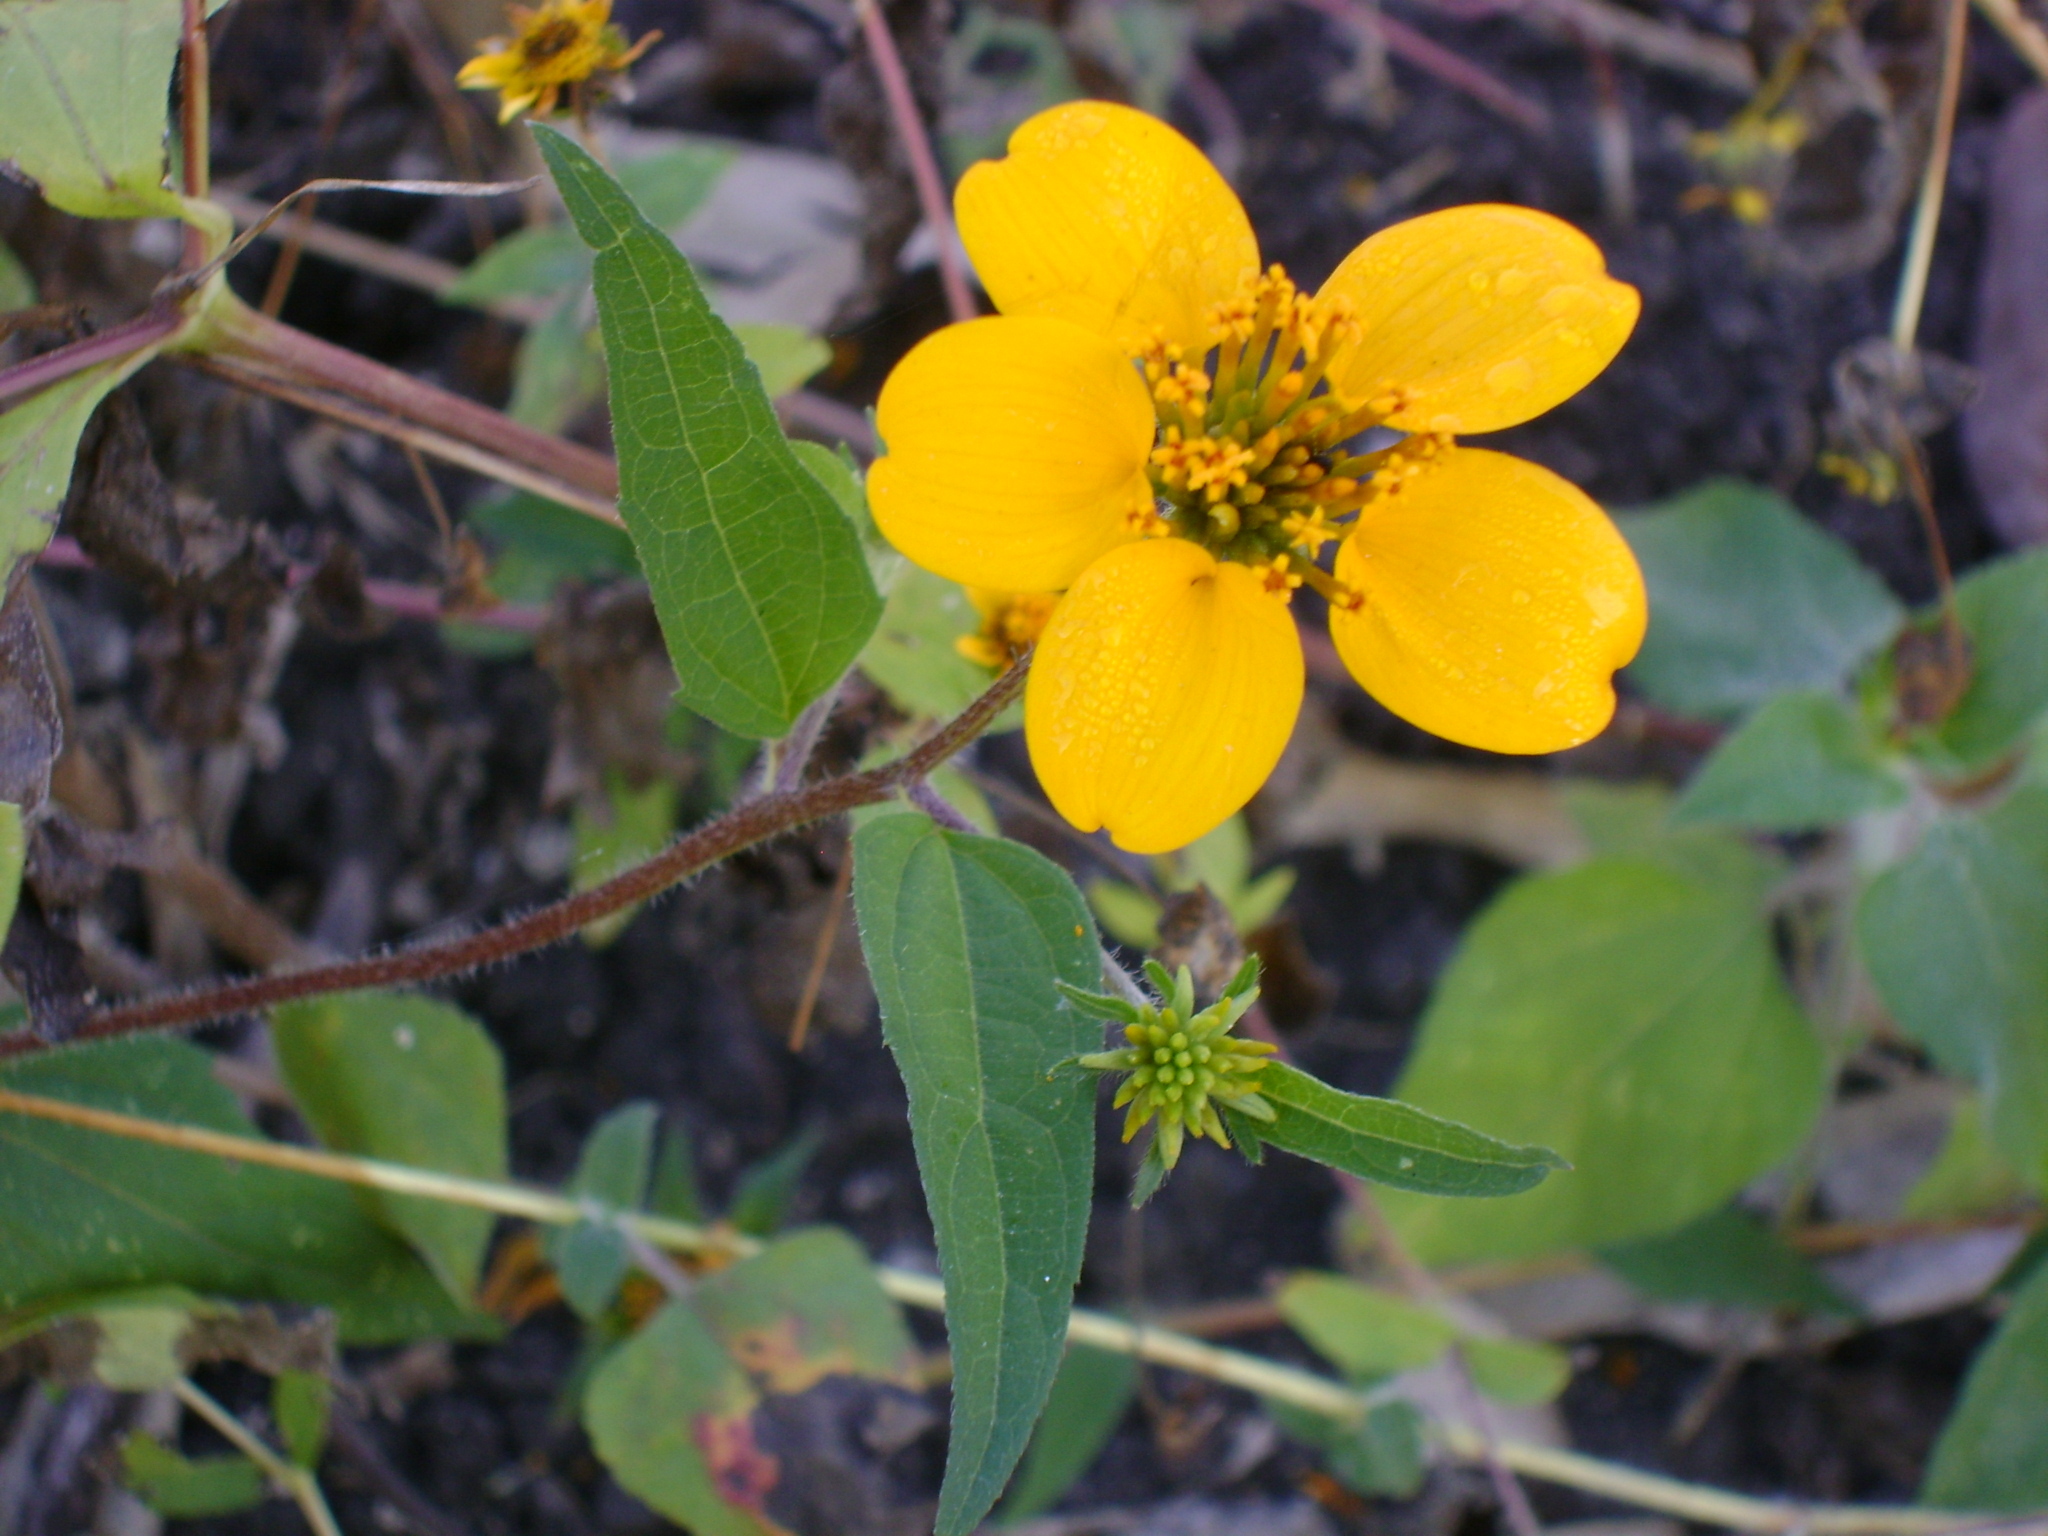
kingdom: Plantae
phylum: Tracheophyta
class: Magnoliopsida
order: Asterales
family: Asteraceae
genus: Sclerocarpus
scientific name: Sclerocarpus uniserialis
